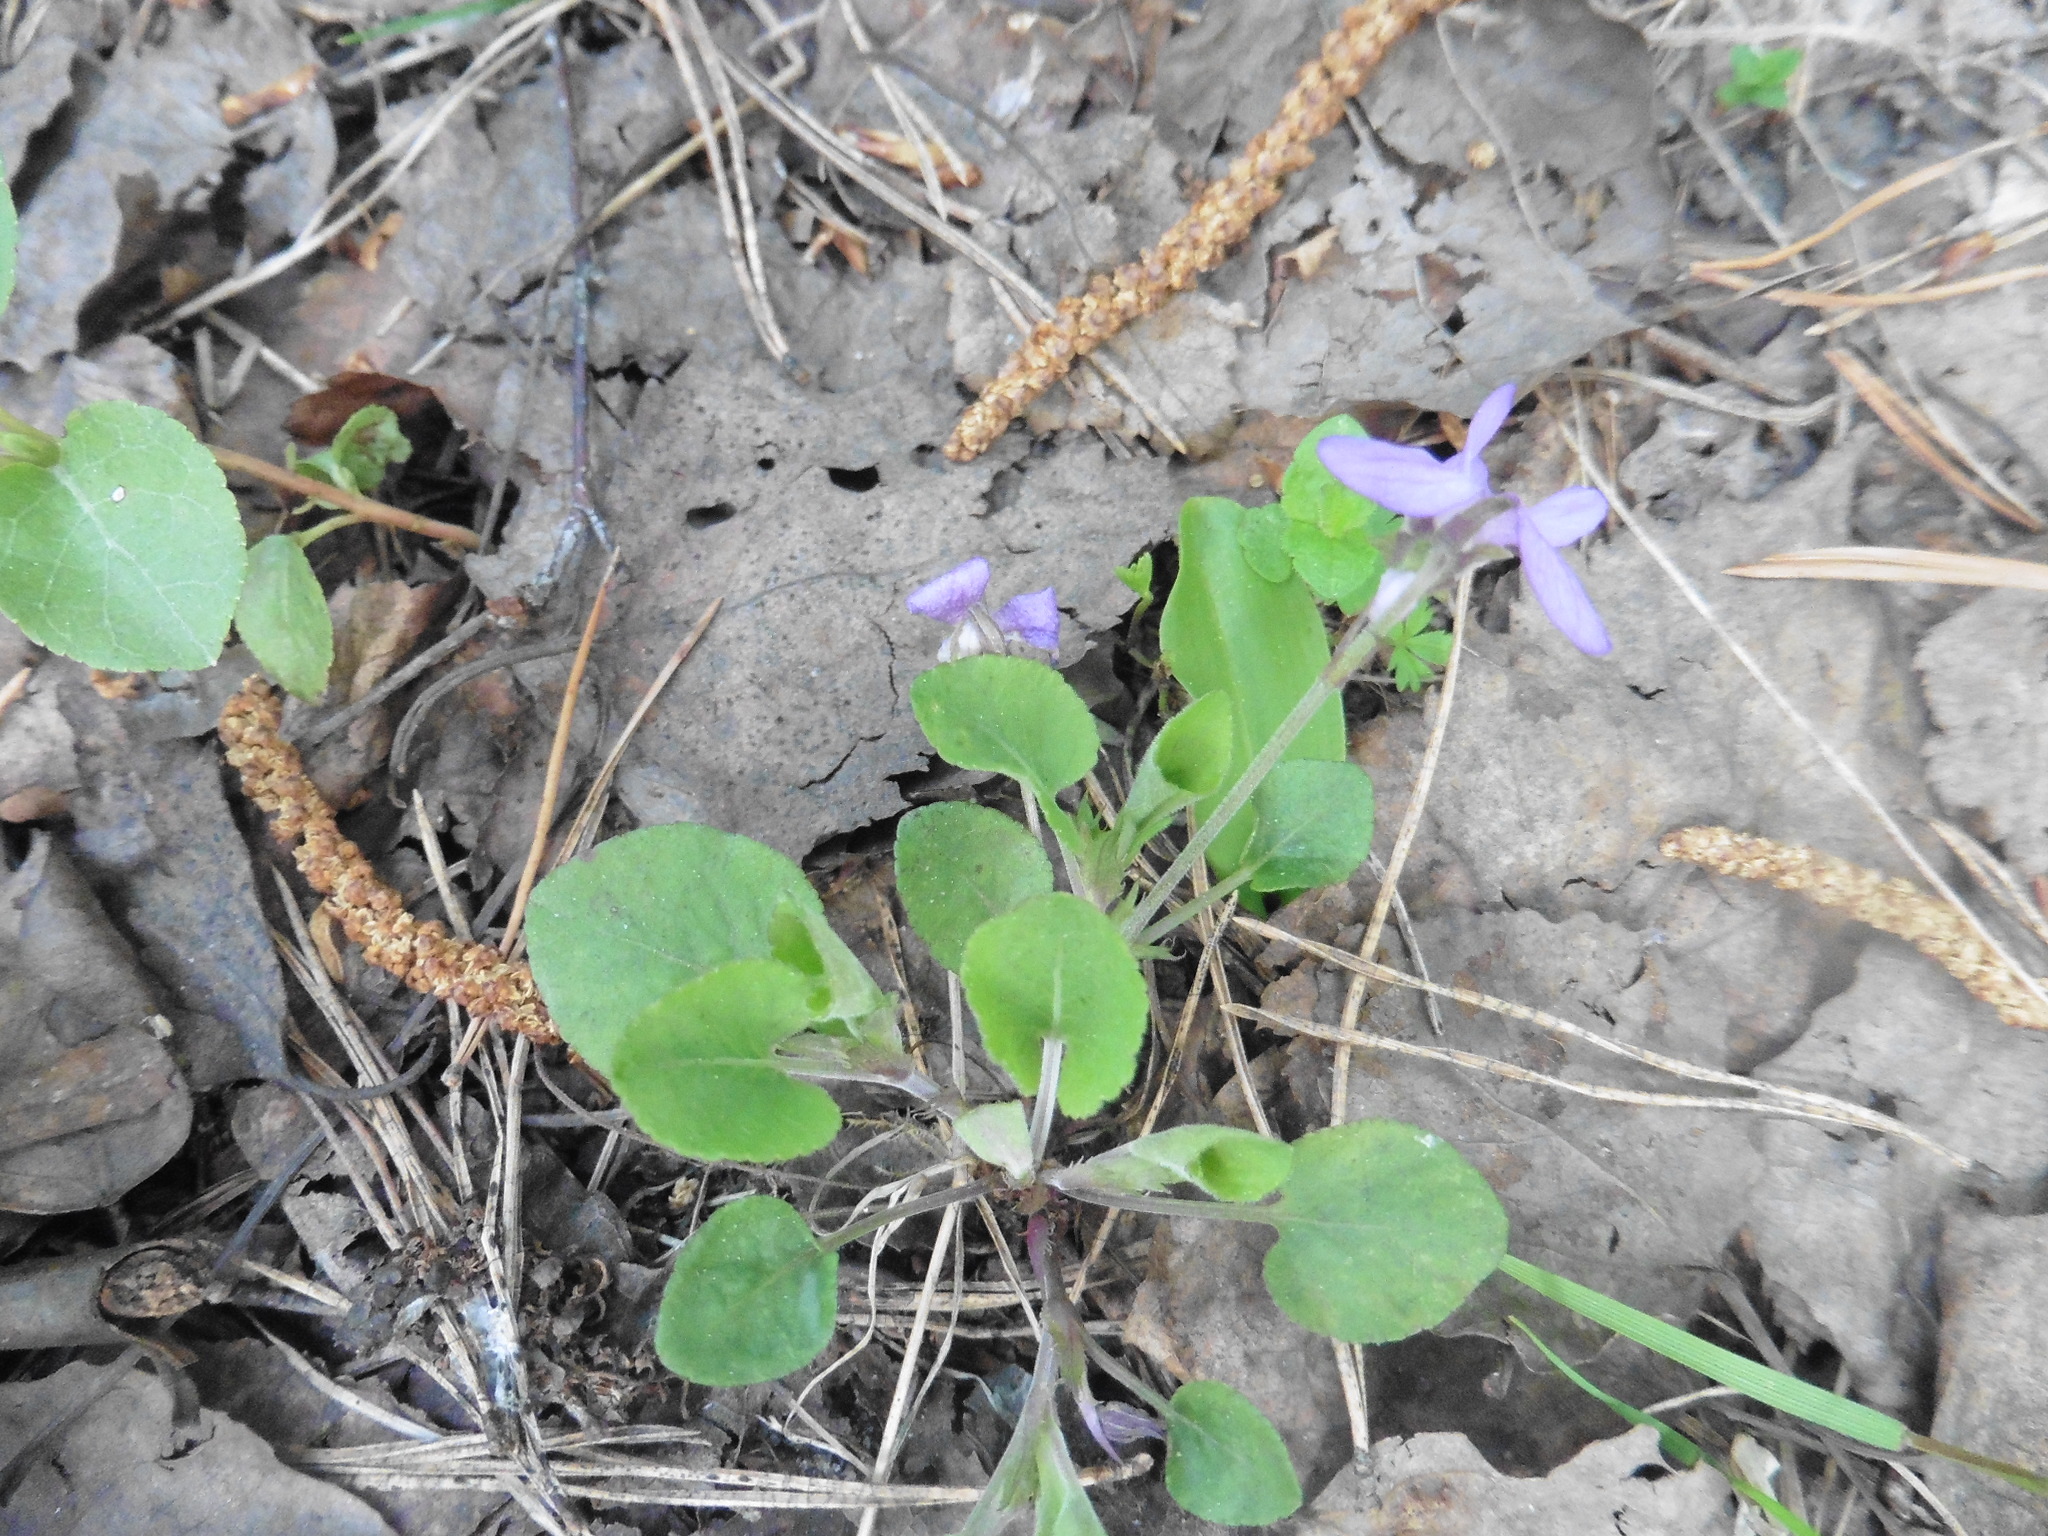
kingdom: Plantae
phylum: Tracheophyta
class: Magnoliopsida
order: Malpighiales
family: Violaceae
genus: Viola
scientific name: Viola rupestris
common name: Teesdale violet
